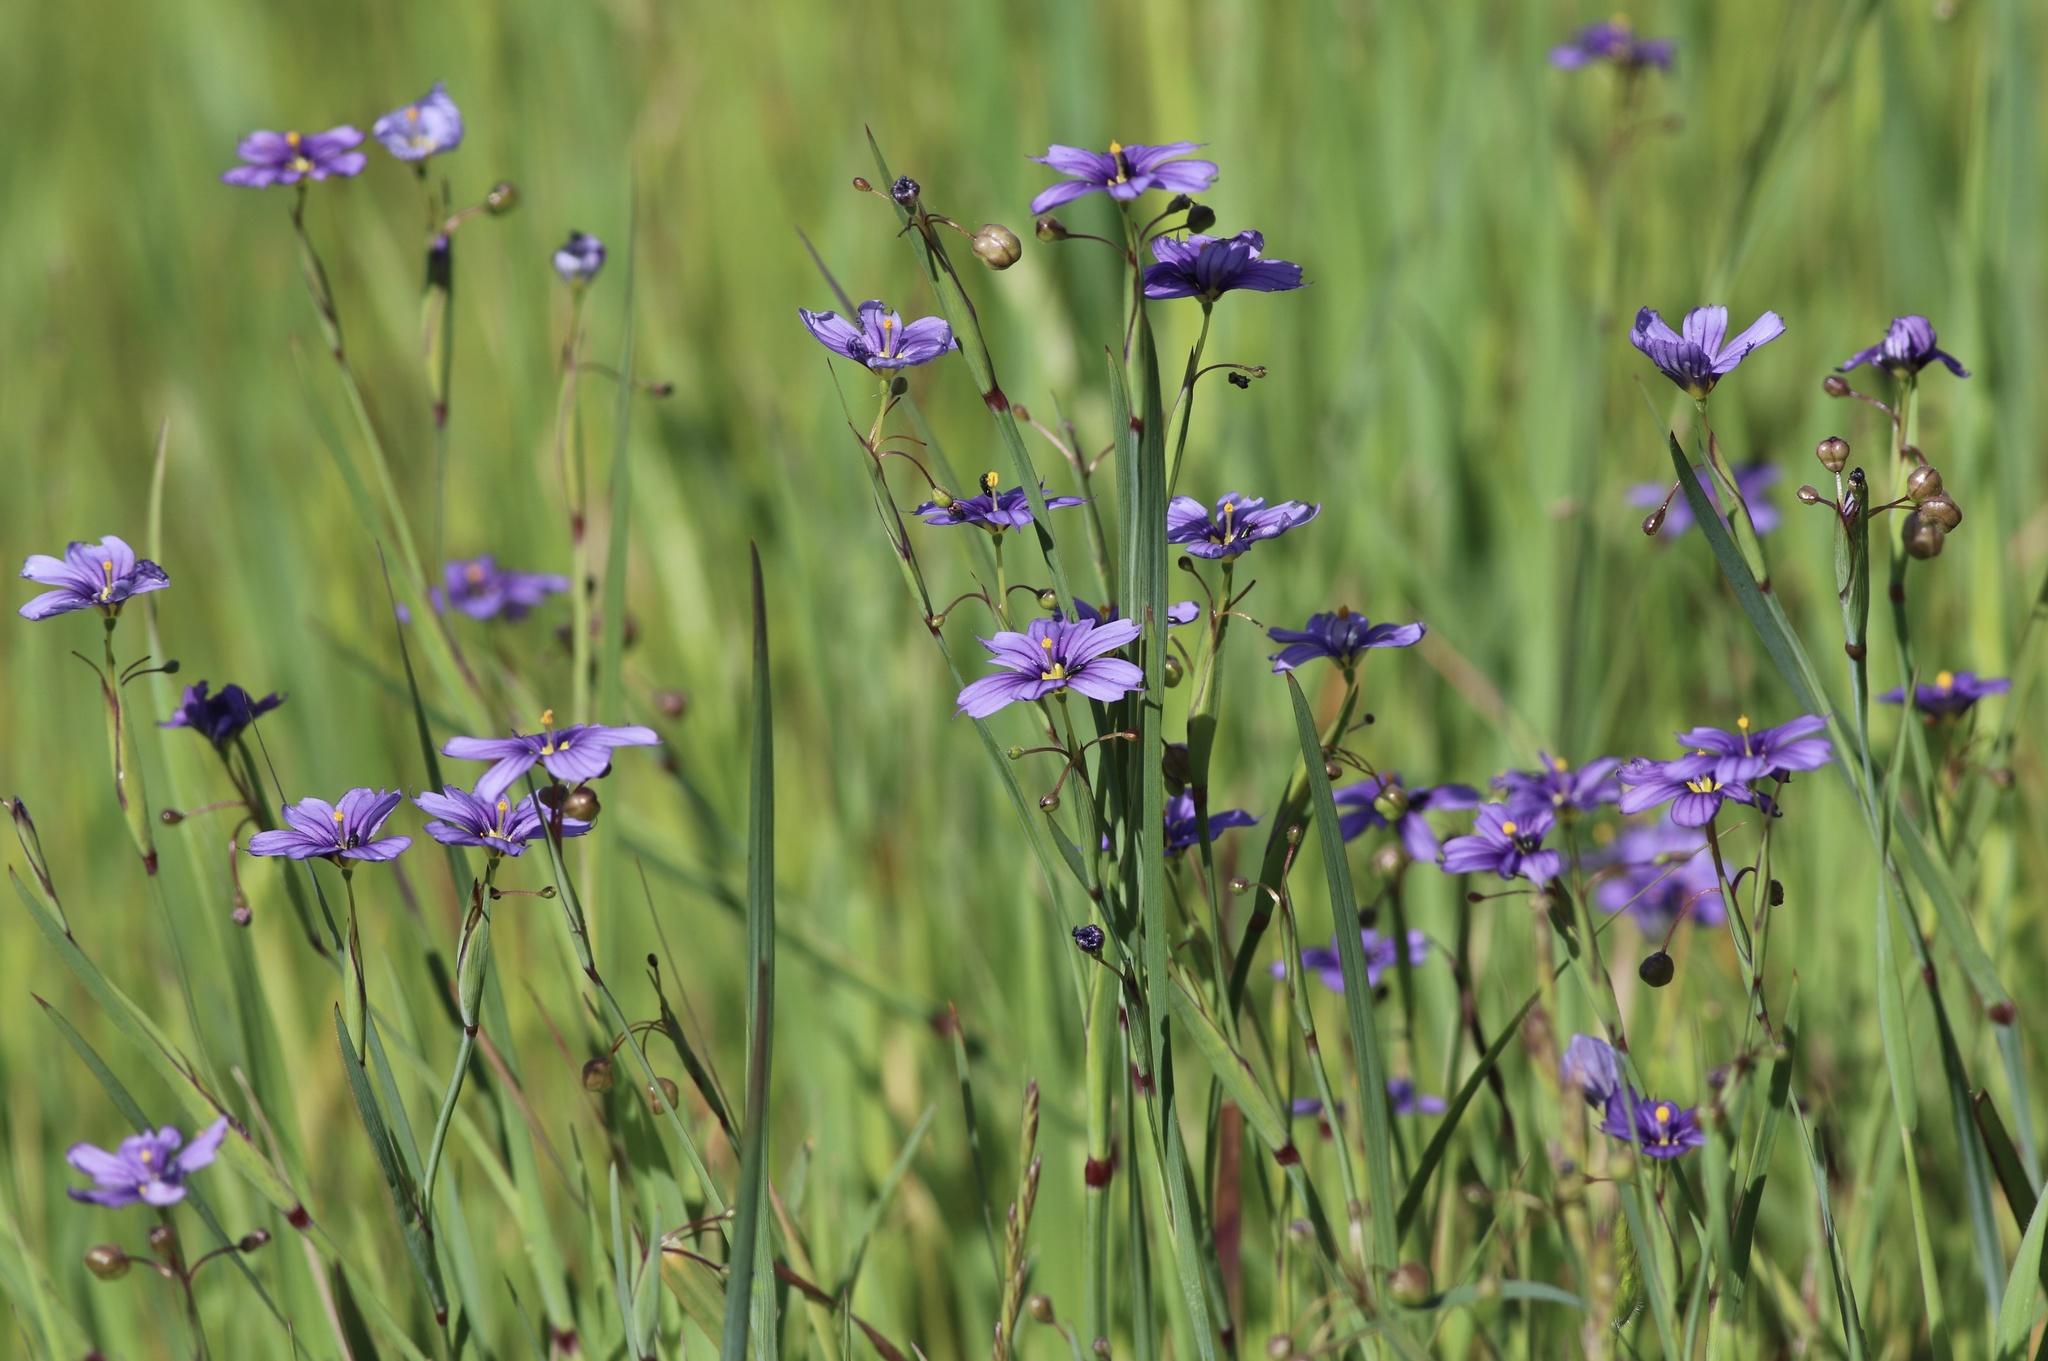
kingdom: Plantae
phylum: Tracheophyta
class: Liliopsida
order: Asparagales
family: Iridaceae
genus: Sisyrinchium
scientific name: Sisyrinchium bellum
